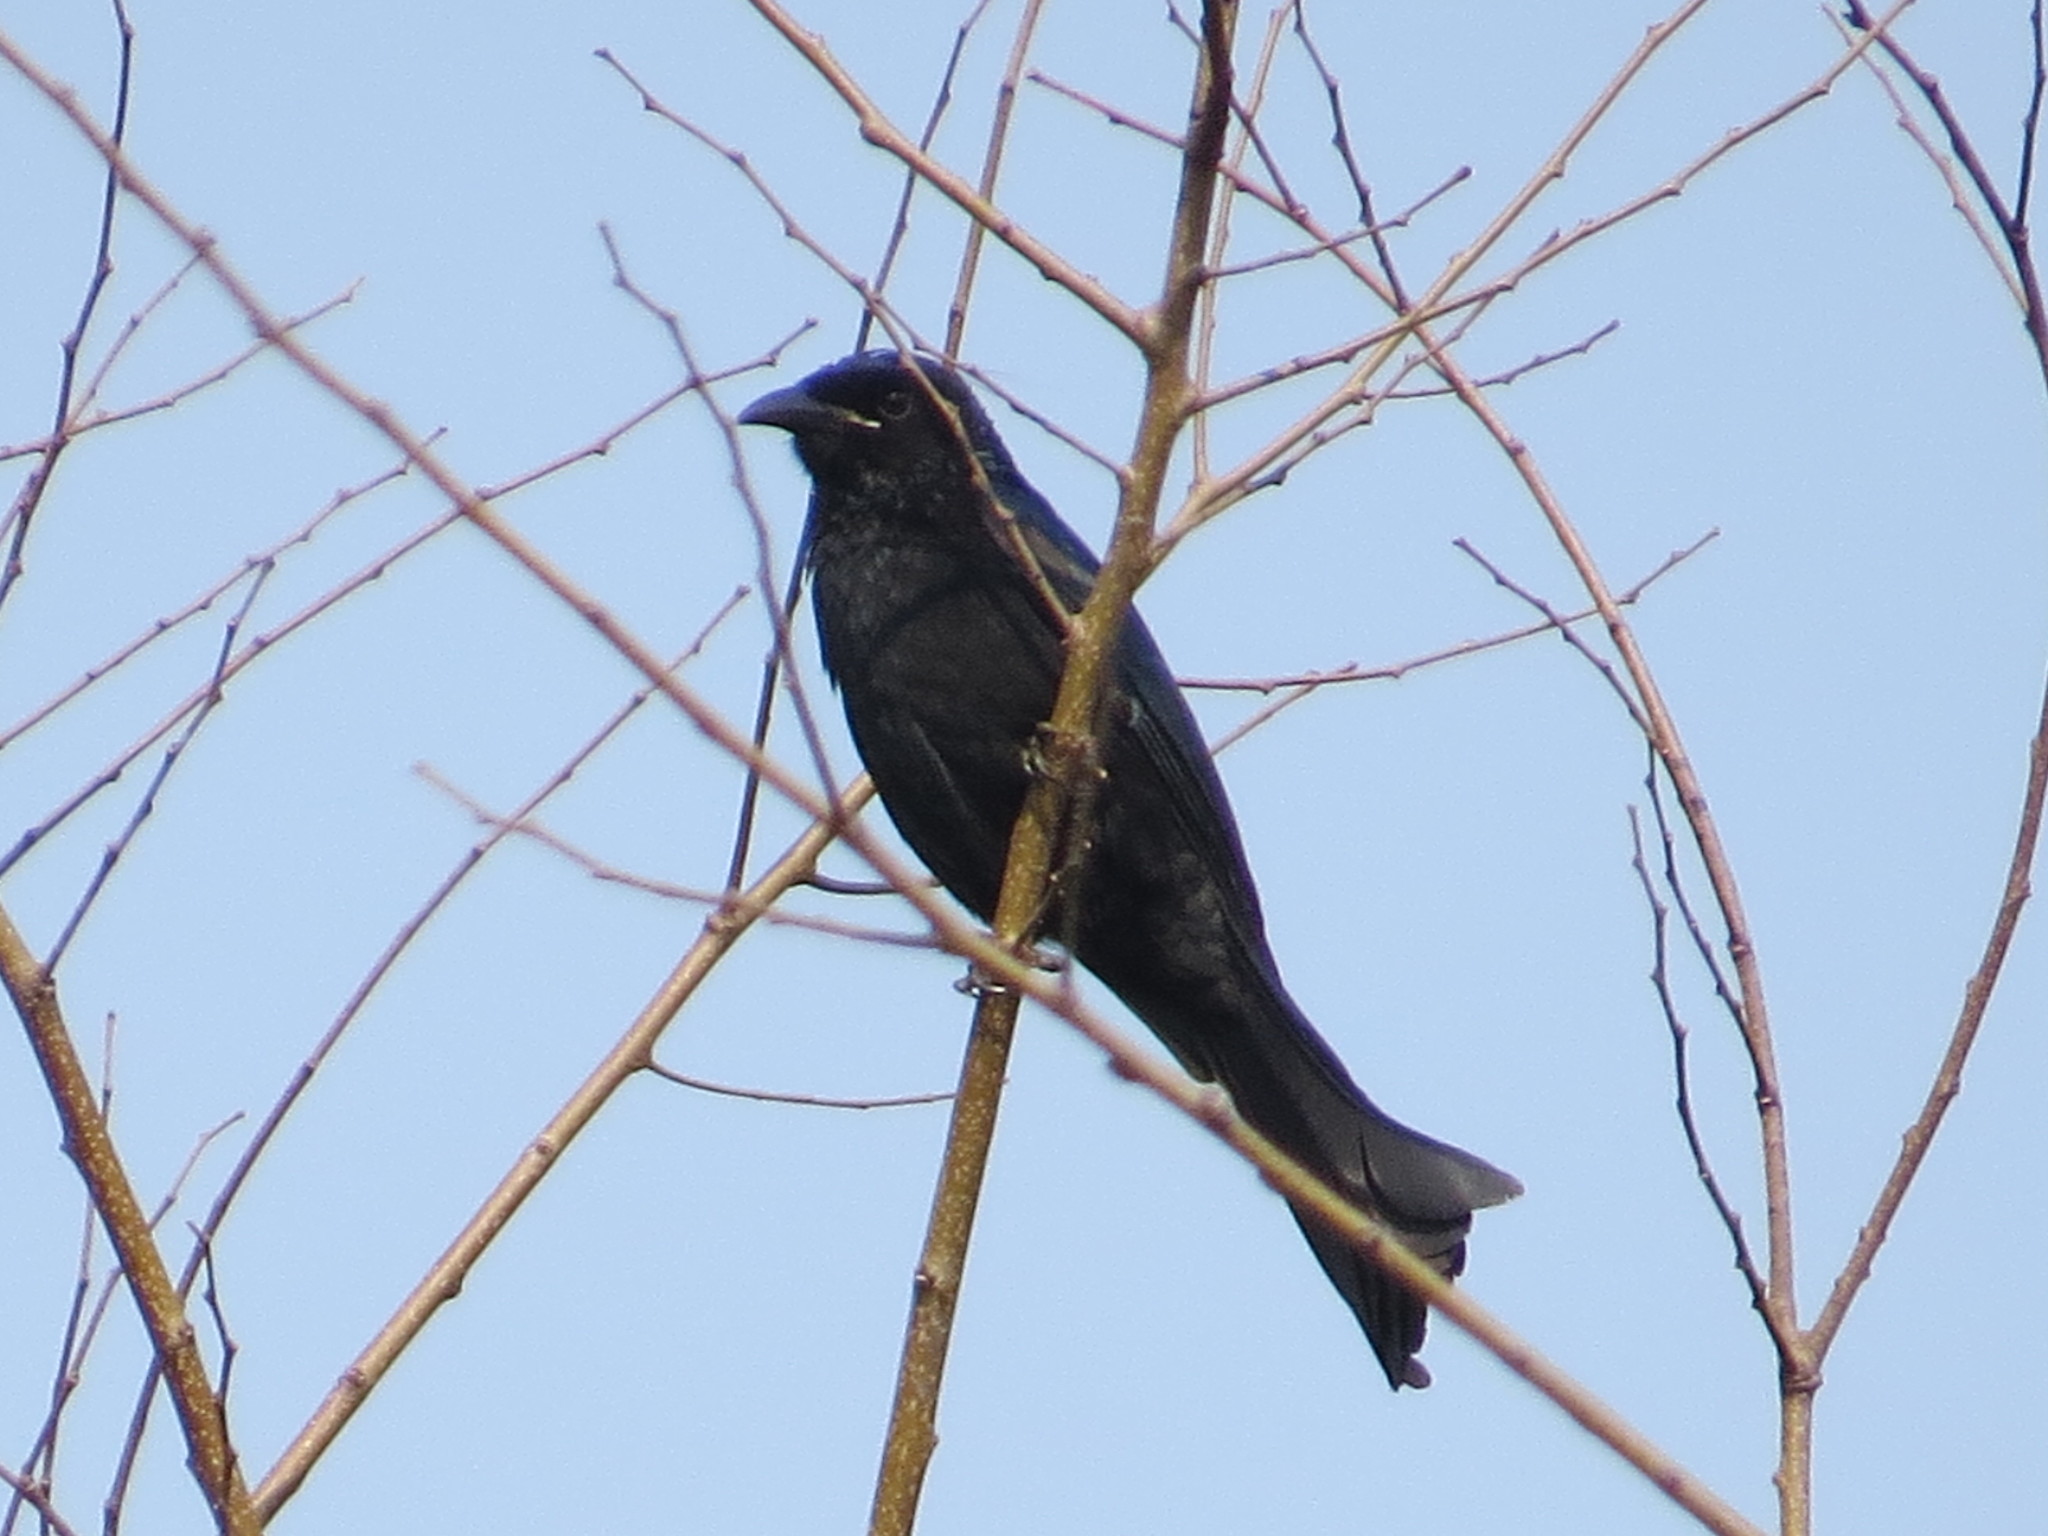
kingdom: Animalia
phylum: Chordata
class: Aves
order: Passeriformes
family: Dicruridae
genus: Dicrurus
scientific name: Dicrurus hottentottus
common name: Hair-crested drongo
